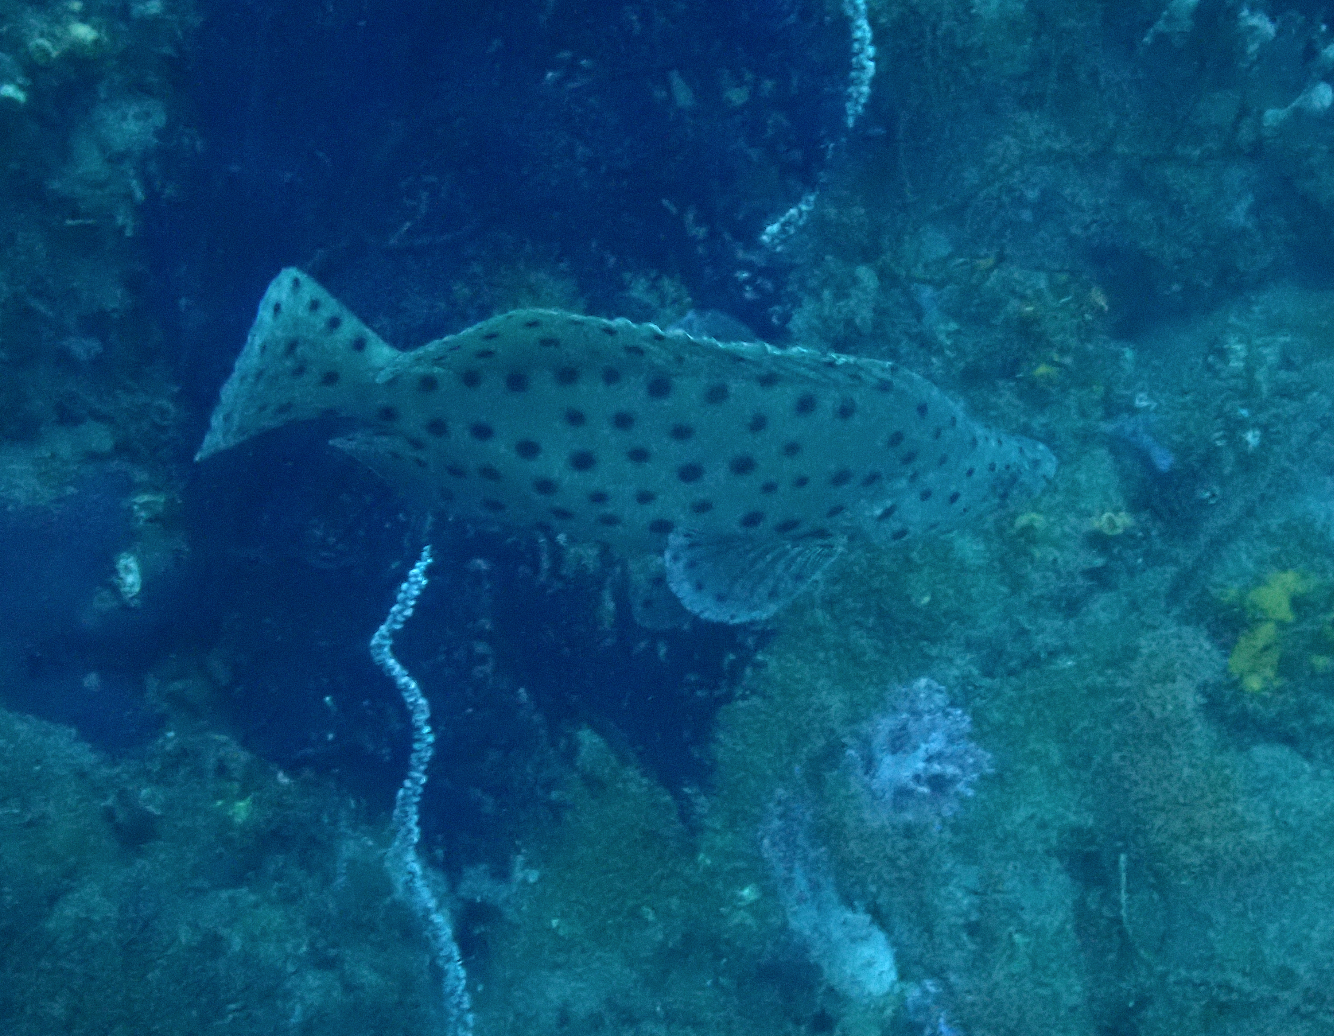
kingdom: Animalia
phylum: Chordata
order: Perciformes
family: Serranidae
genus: Cromileptes
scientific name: Cromileptes altivelis
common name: Humpback grouper
